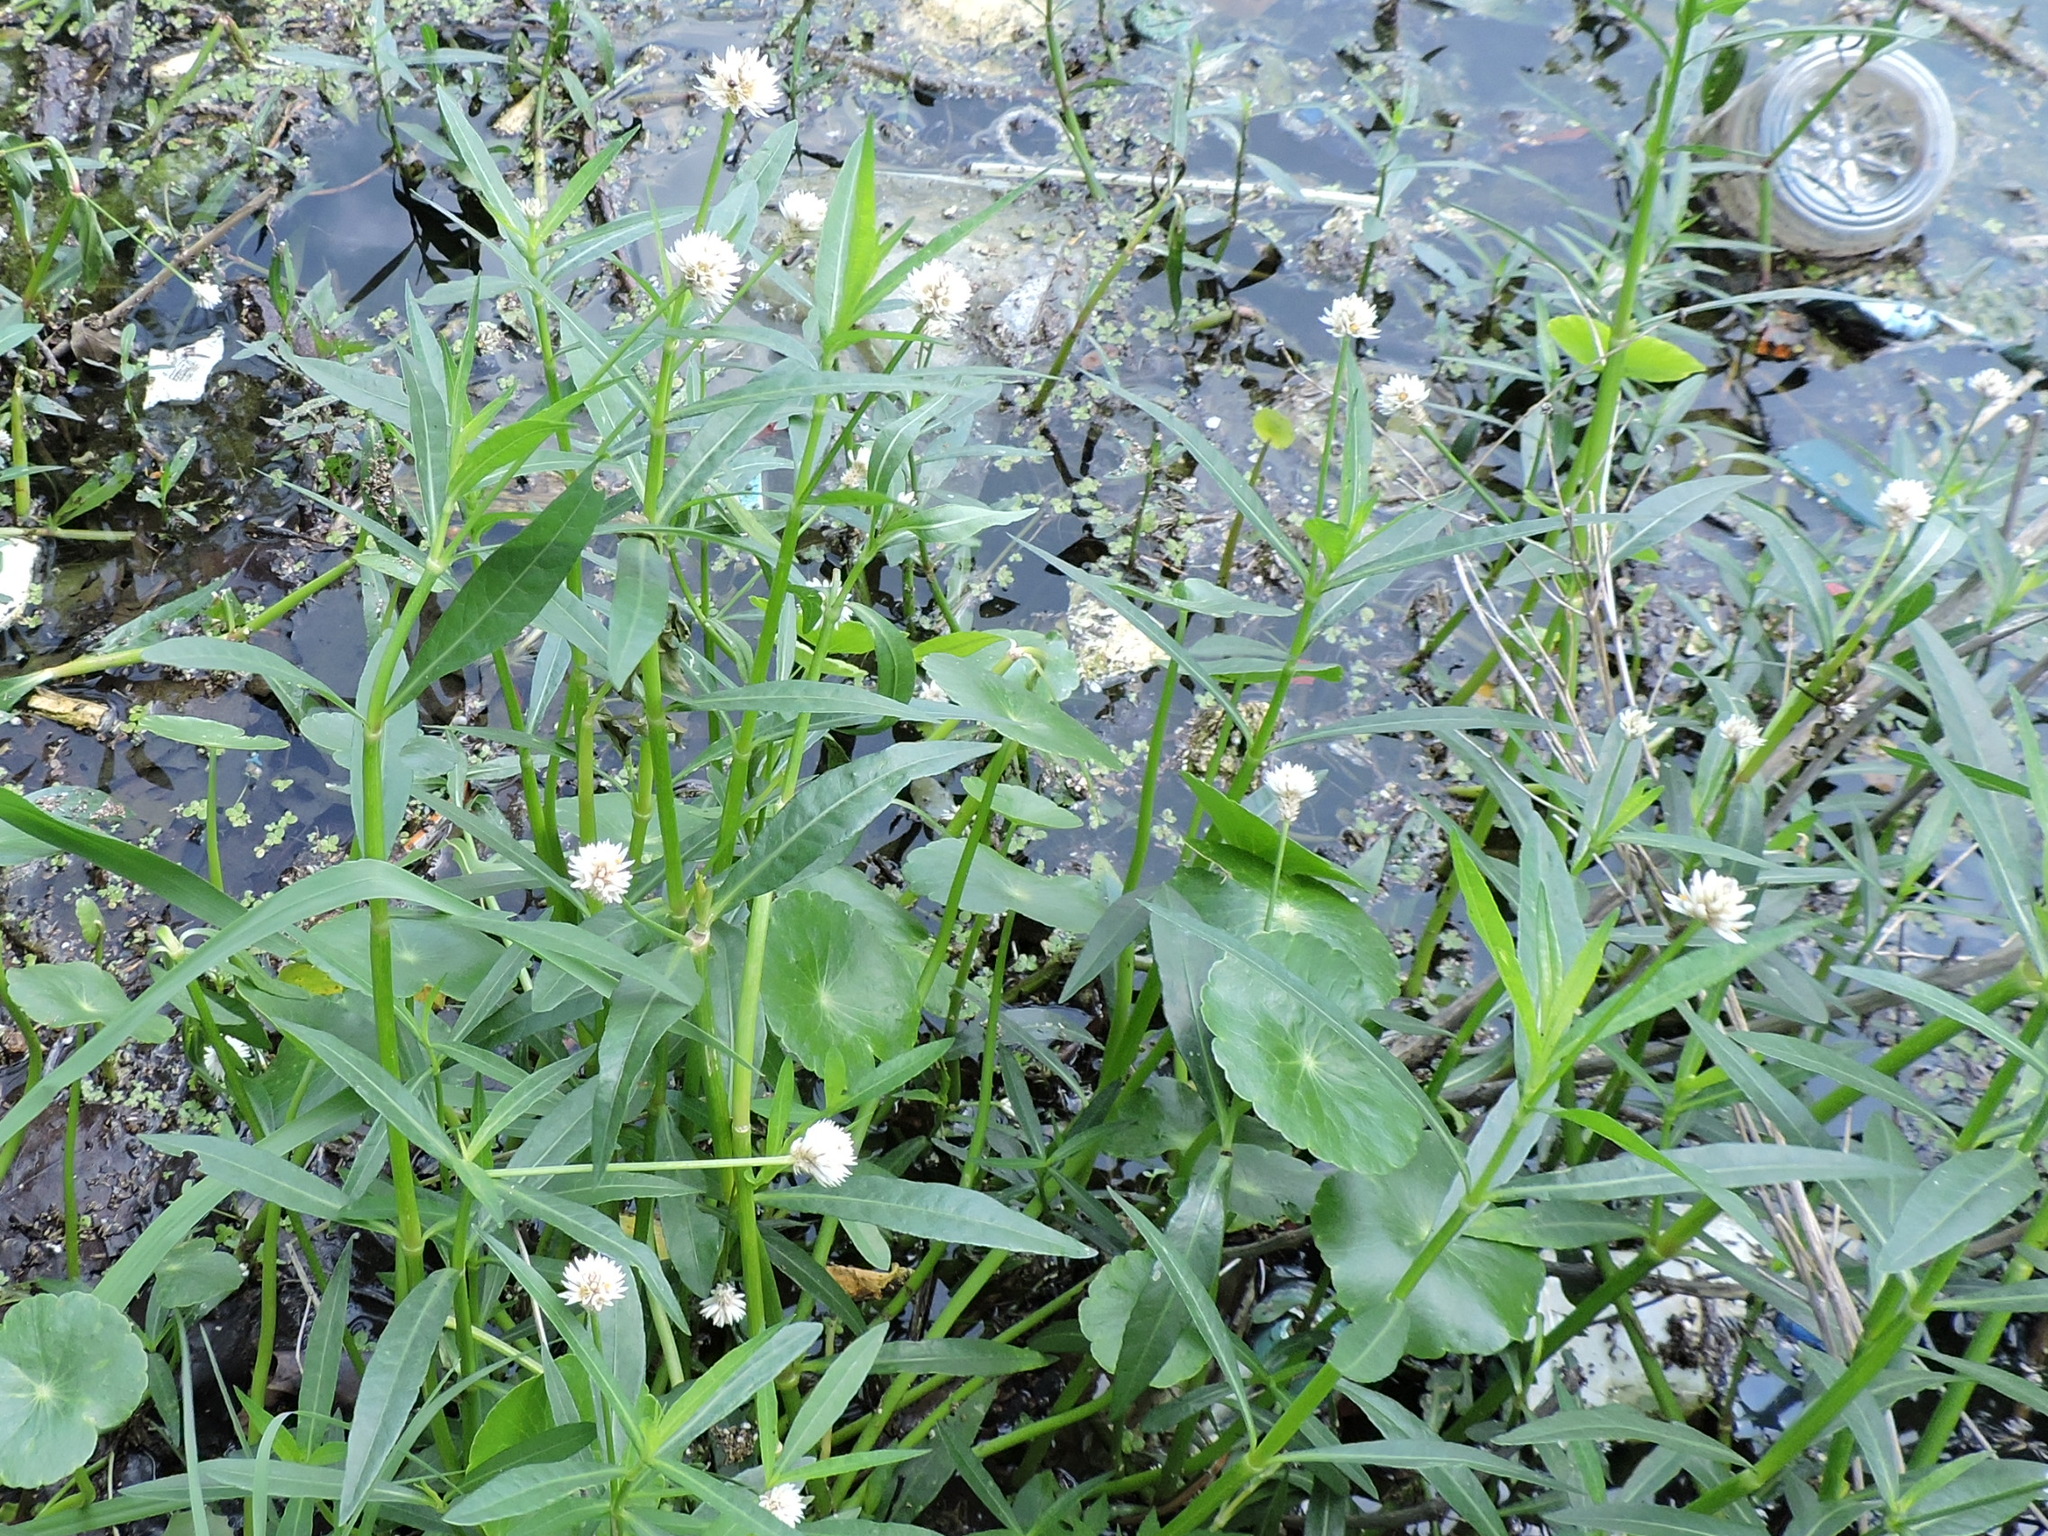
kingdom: Plantae
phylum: Tracheophyta
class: Magnoliopsida
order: Caryophyllales
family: Amaranthaceae
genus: Alternanthera
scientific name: Alternanthera philoxeroides
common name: Alligatorweed
